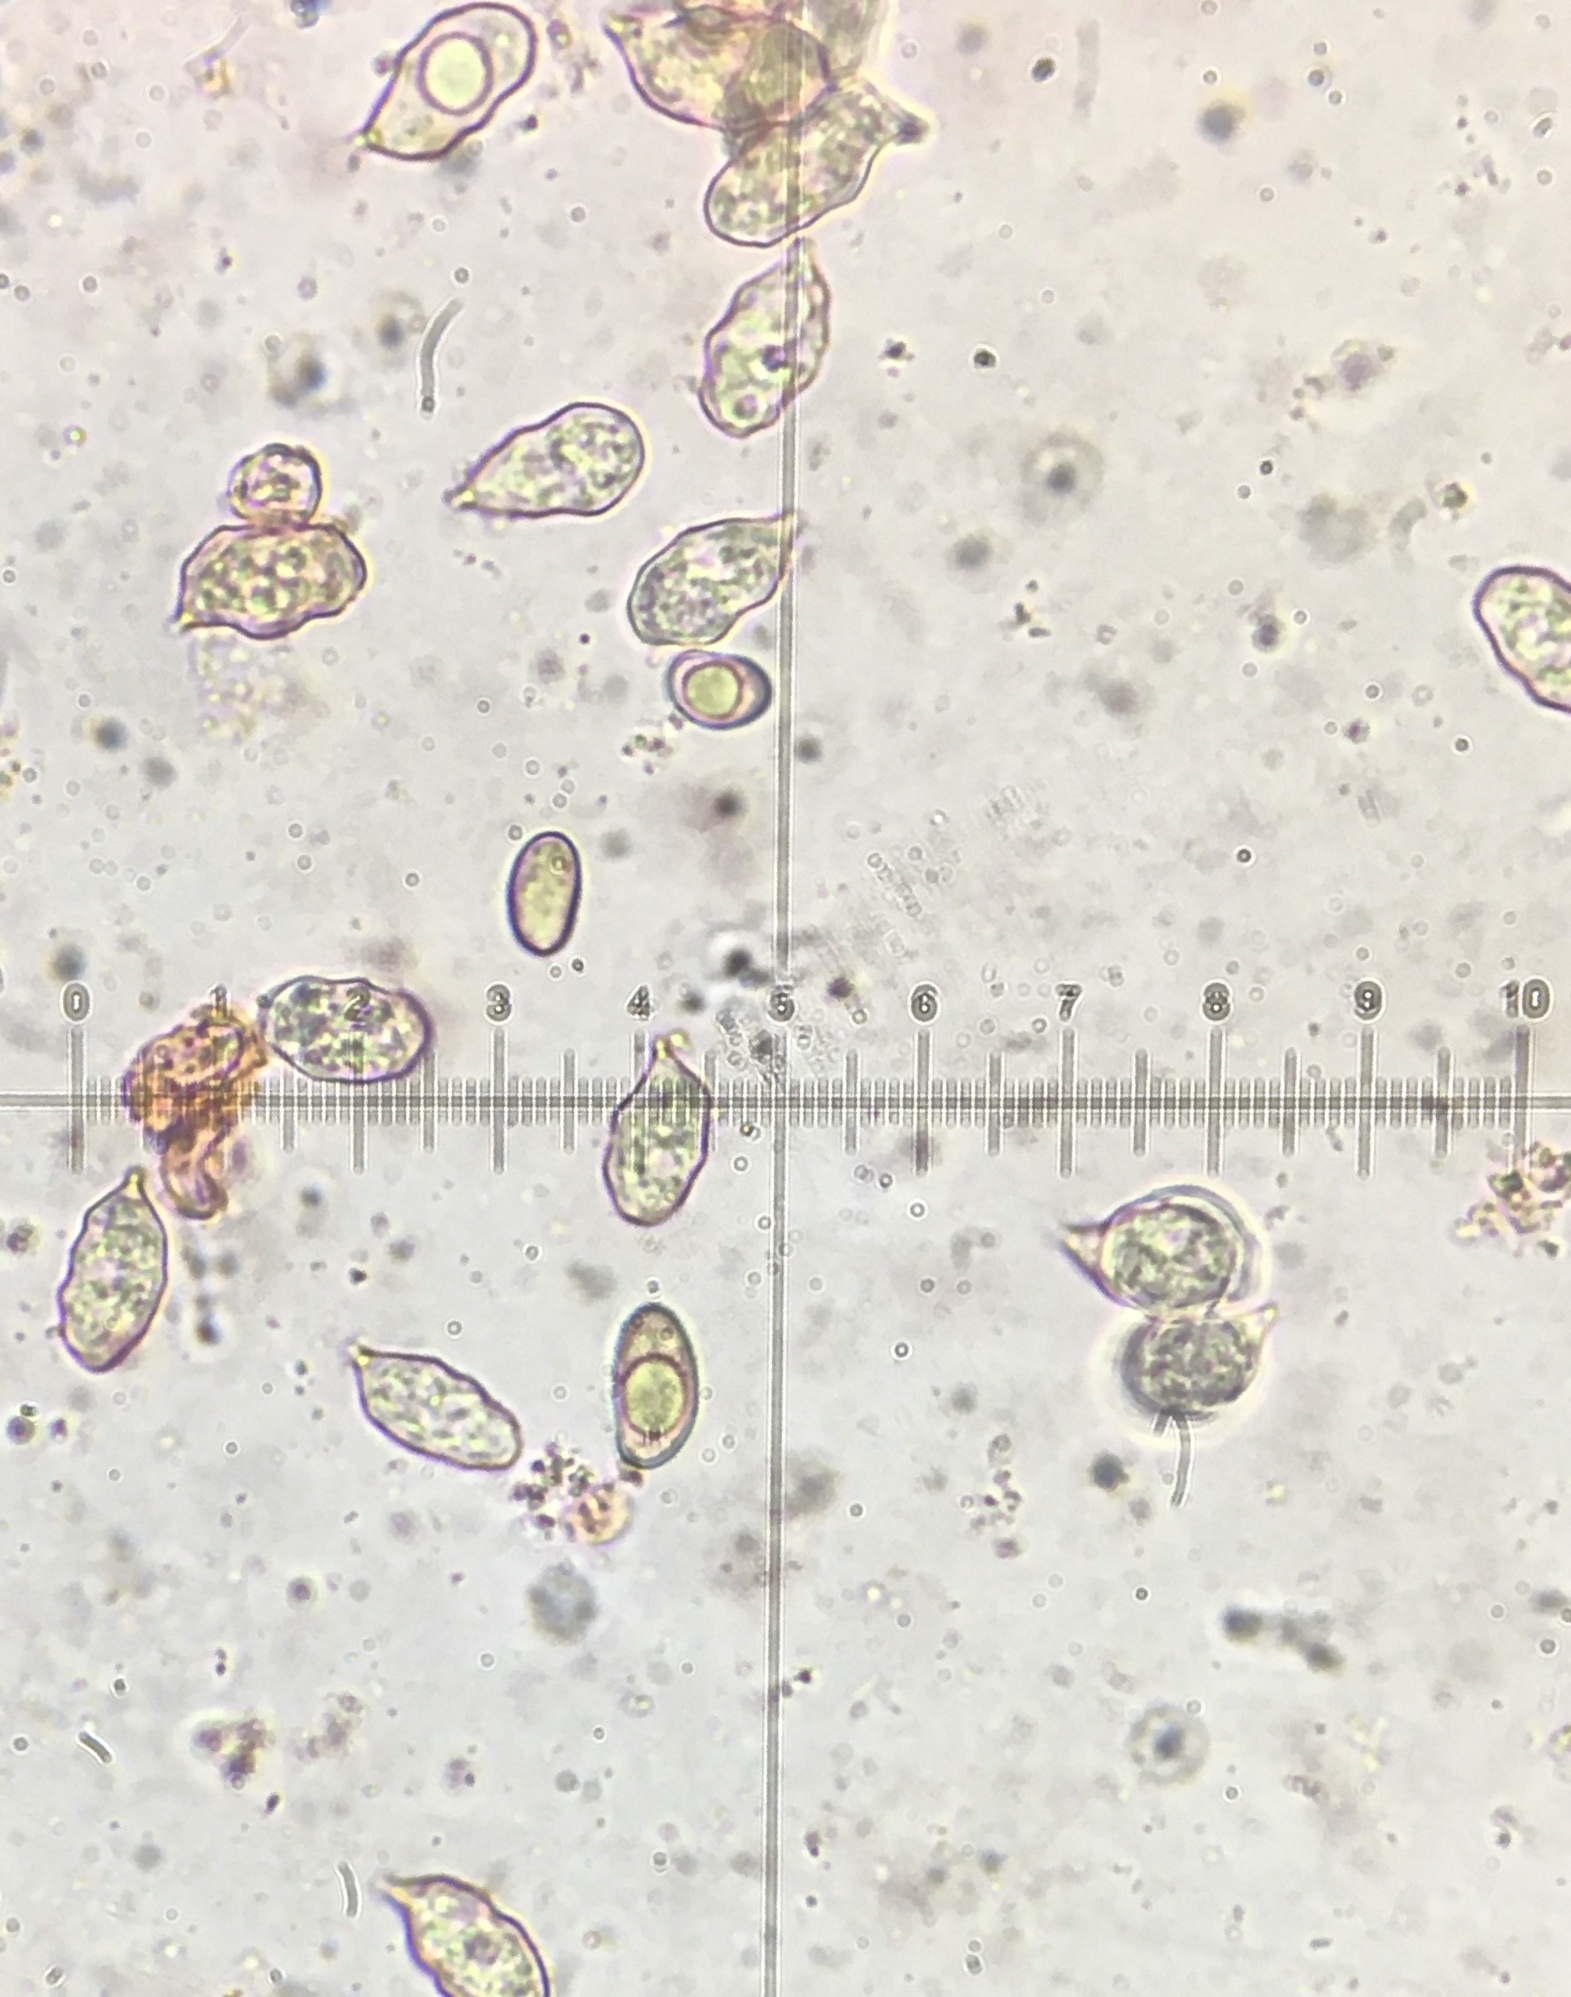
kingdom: Fungi
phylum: Basidiomycota
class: Agaricomycetes
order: Agaricales
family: Entolomataceae
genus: Entoloma
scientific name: Entoloma nodosporum
